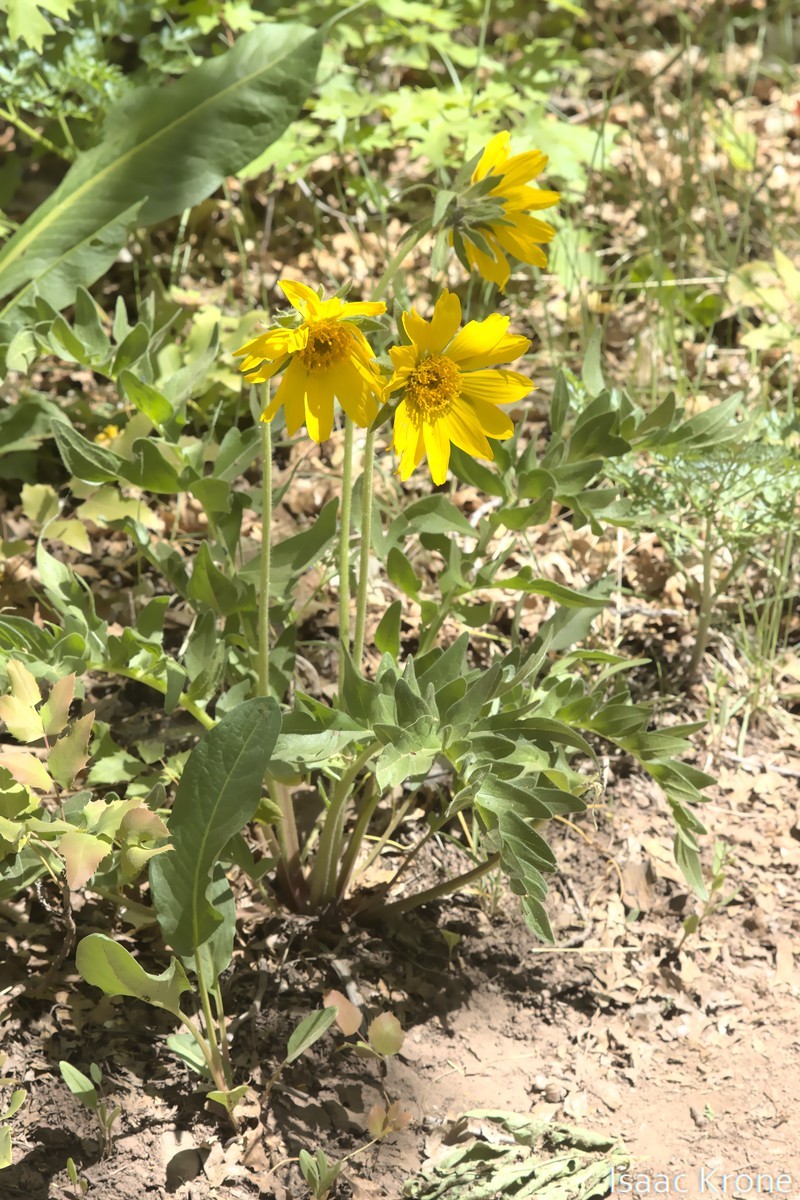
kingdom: Plantae
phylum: Tracheophyta
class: Magnoliopsida
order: Asterales
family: Asteraceae
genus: Balsamorhiza
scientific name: Balsamorhiza macrophylla
